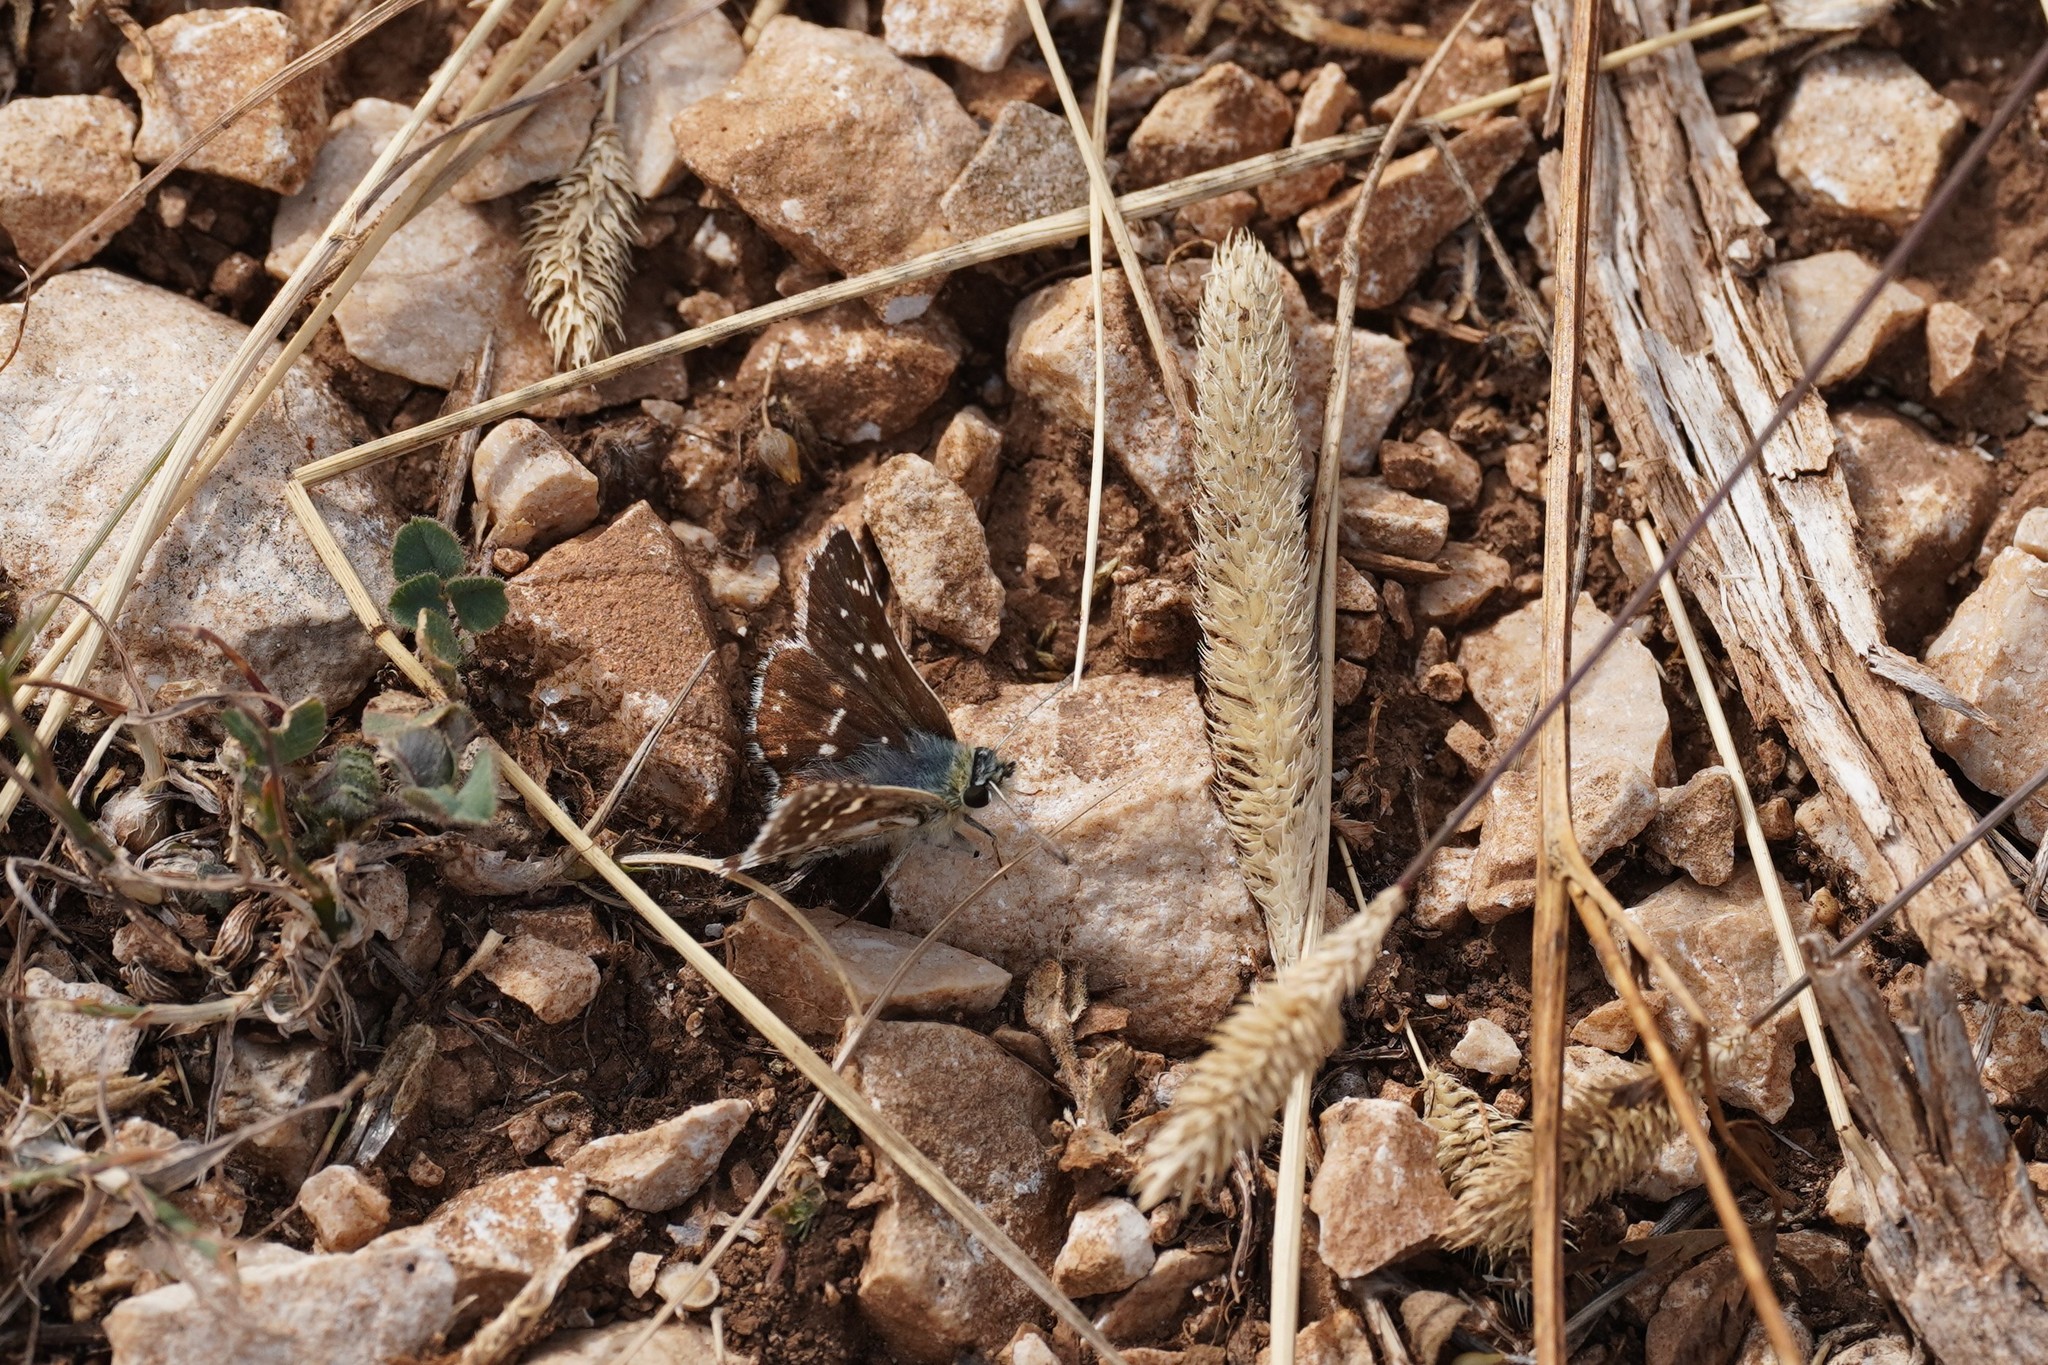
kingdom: Animalia
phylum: Arthropoda
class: Insecta
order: Lepidoptera
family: Hesperiidae
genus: Spialia
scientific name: Spialia sertorius
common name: Red underwing skipper
